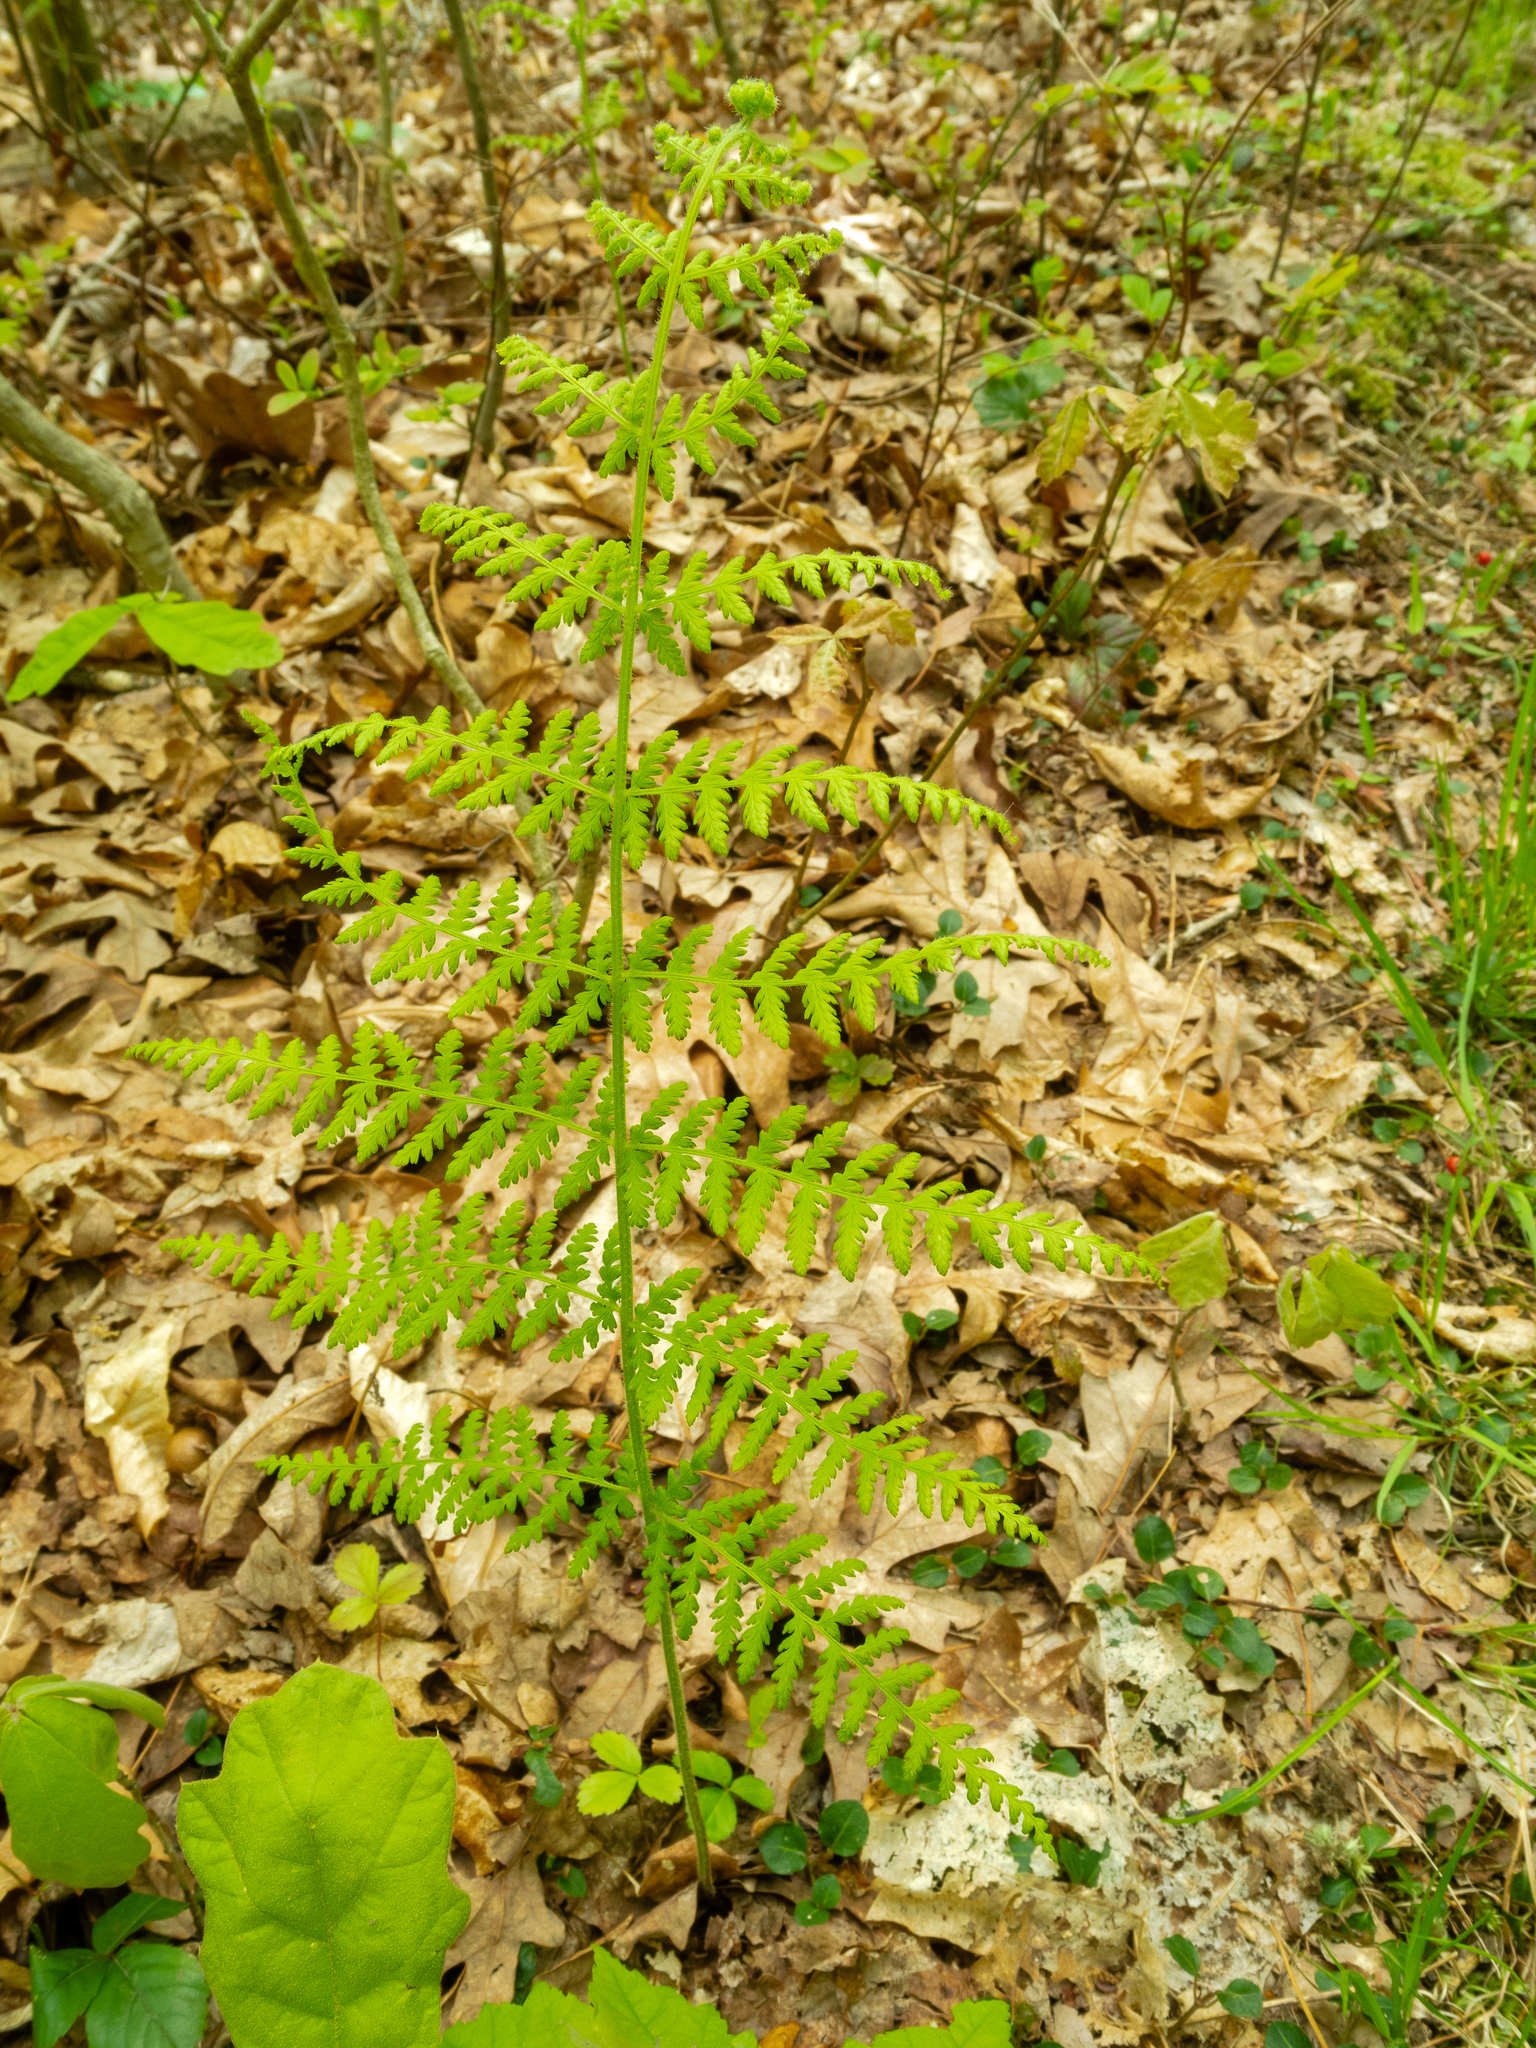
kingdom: Plantae
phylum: Tracheophyta
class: Polypodiopsida
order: Polypodiales
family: Dennstaedtiaceae
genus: Sitobolium
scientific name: Sitobolium punctilobum
